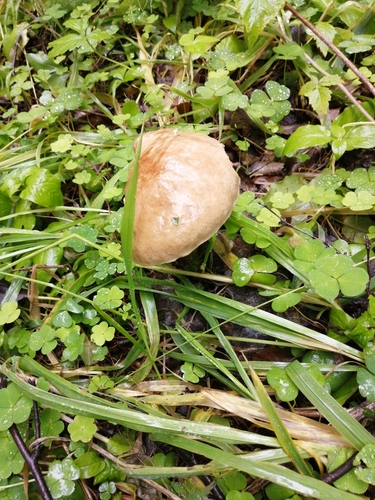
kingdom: Fungi
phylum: Basidiomycota
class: Agaricomycetes
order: Boletales
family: Boletaceae
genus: Leccinum
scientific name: Leccinum scabrum
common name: Blushing bolete
